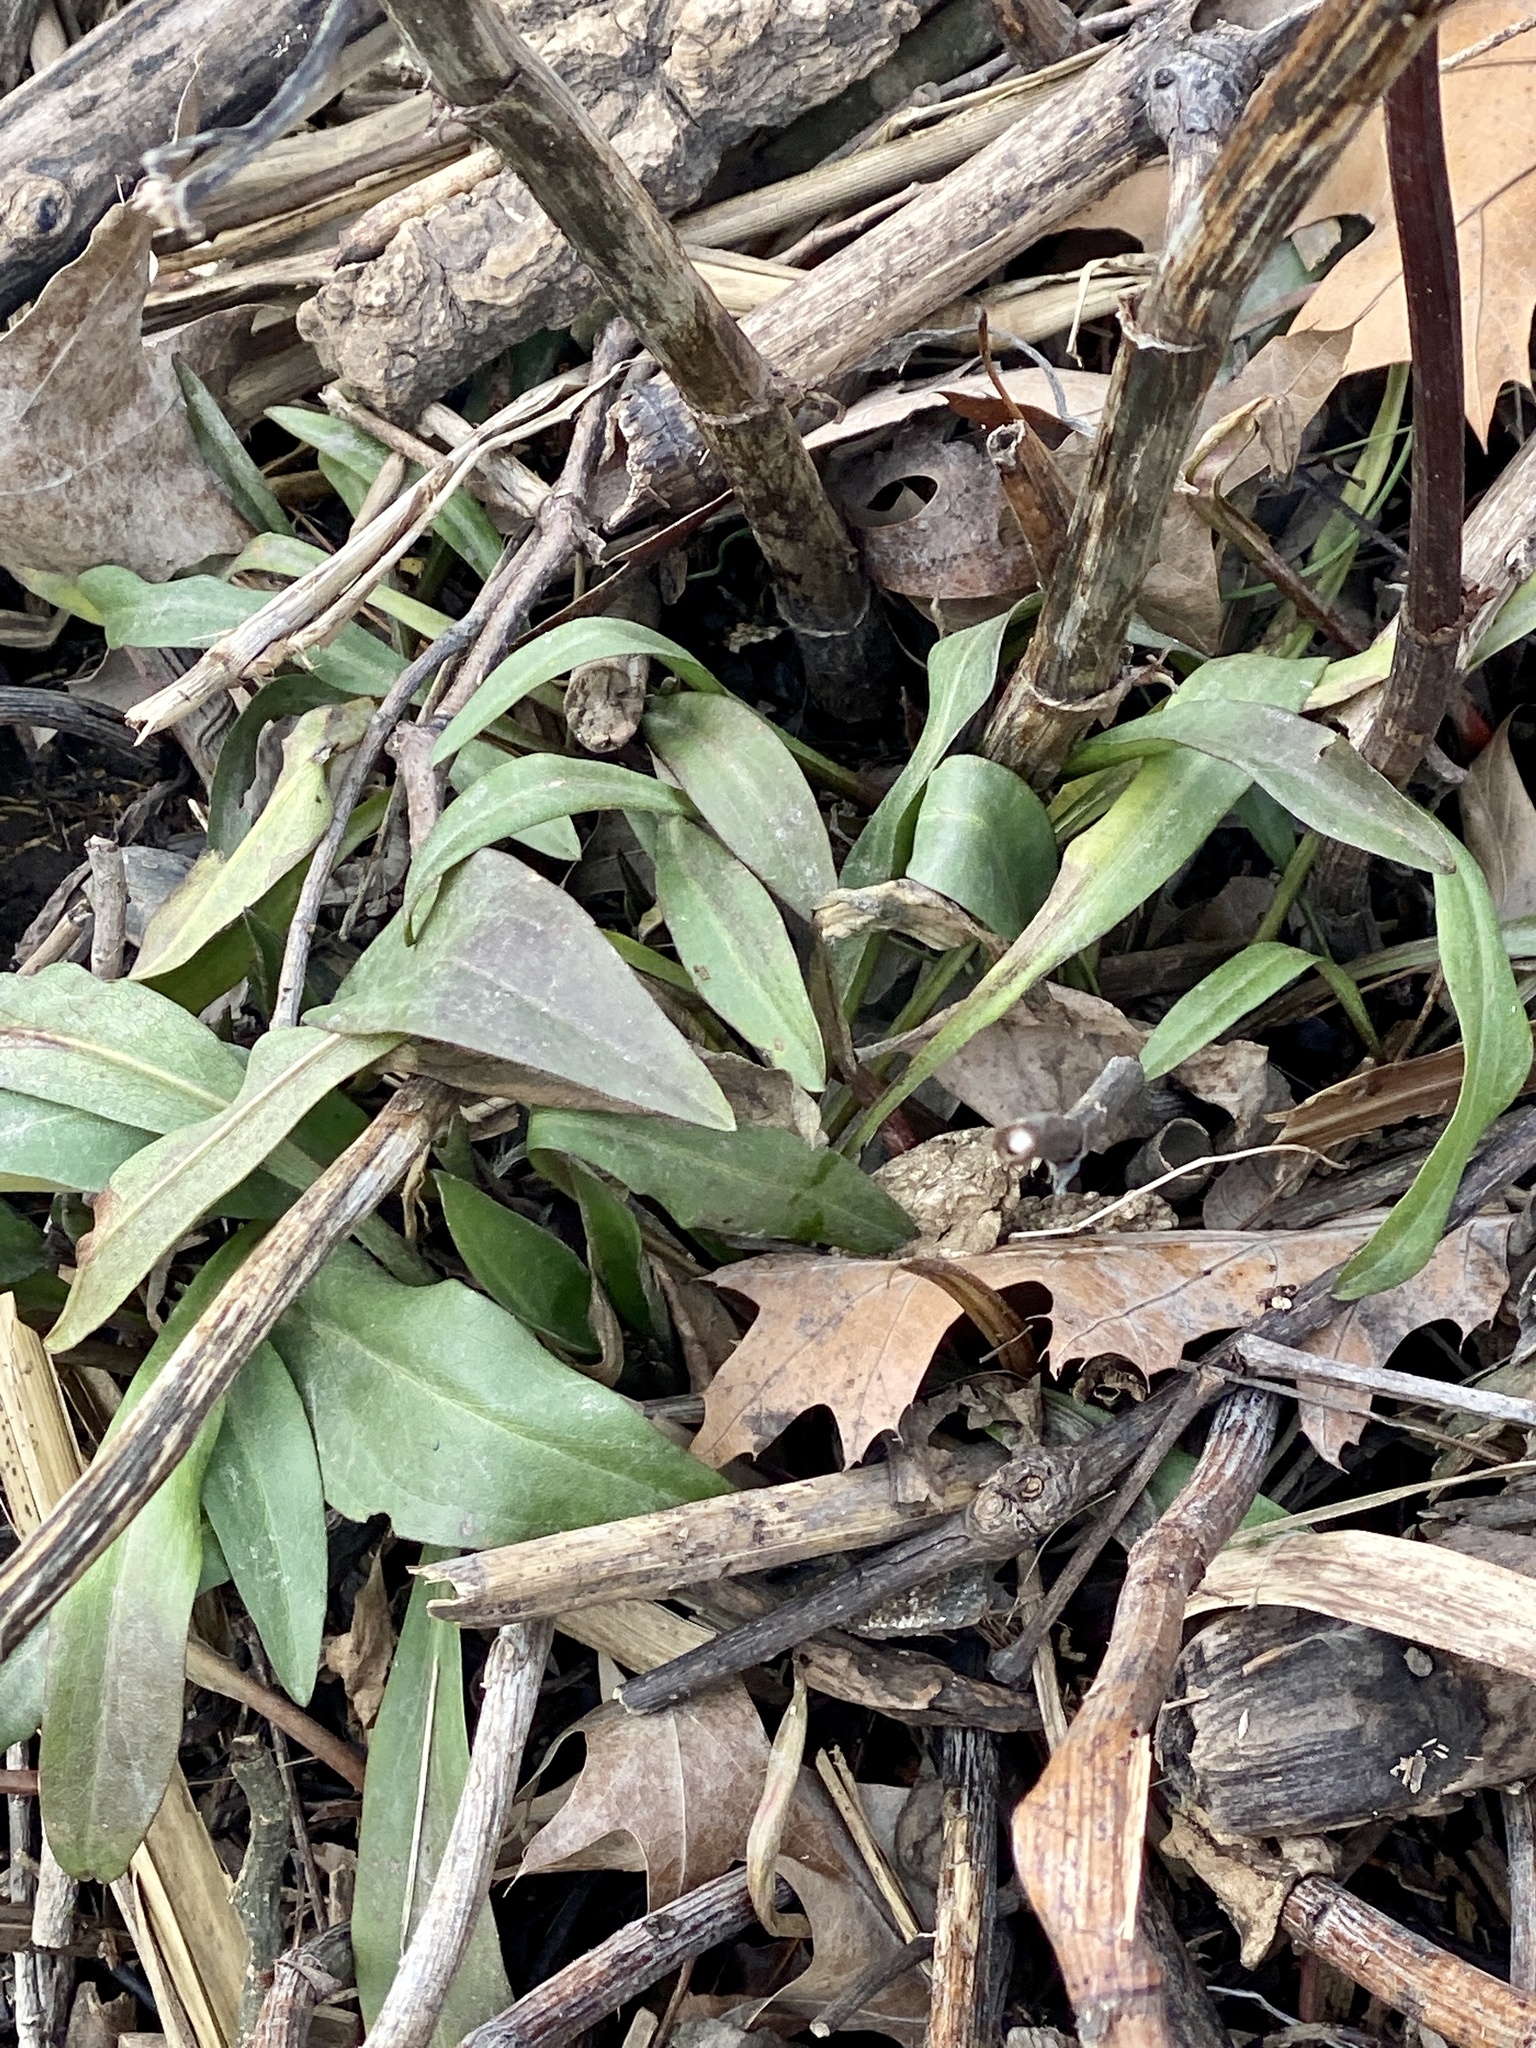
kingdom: Plantae
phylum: Tracheophyta
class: Magnoliopsida
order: Asterales
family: Asteraceae
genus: Solidago
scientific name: Solidago sempervirens
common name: Salt-marsh goldenrod
